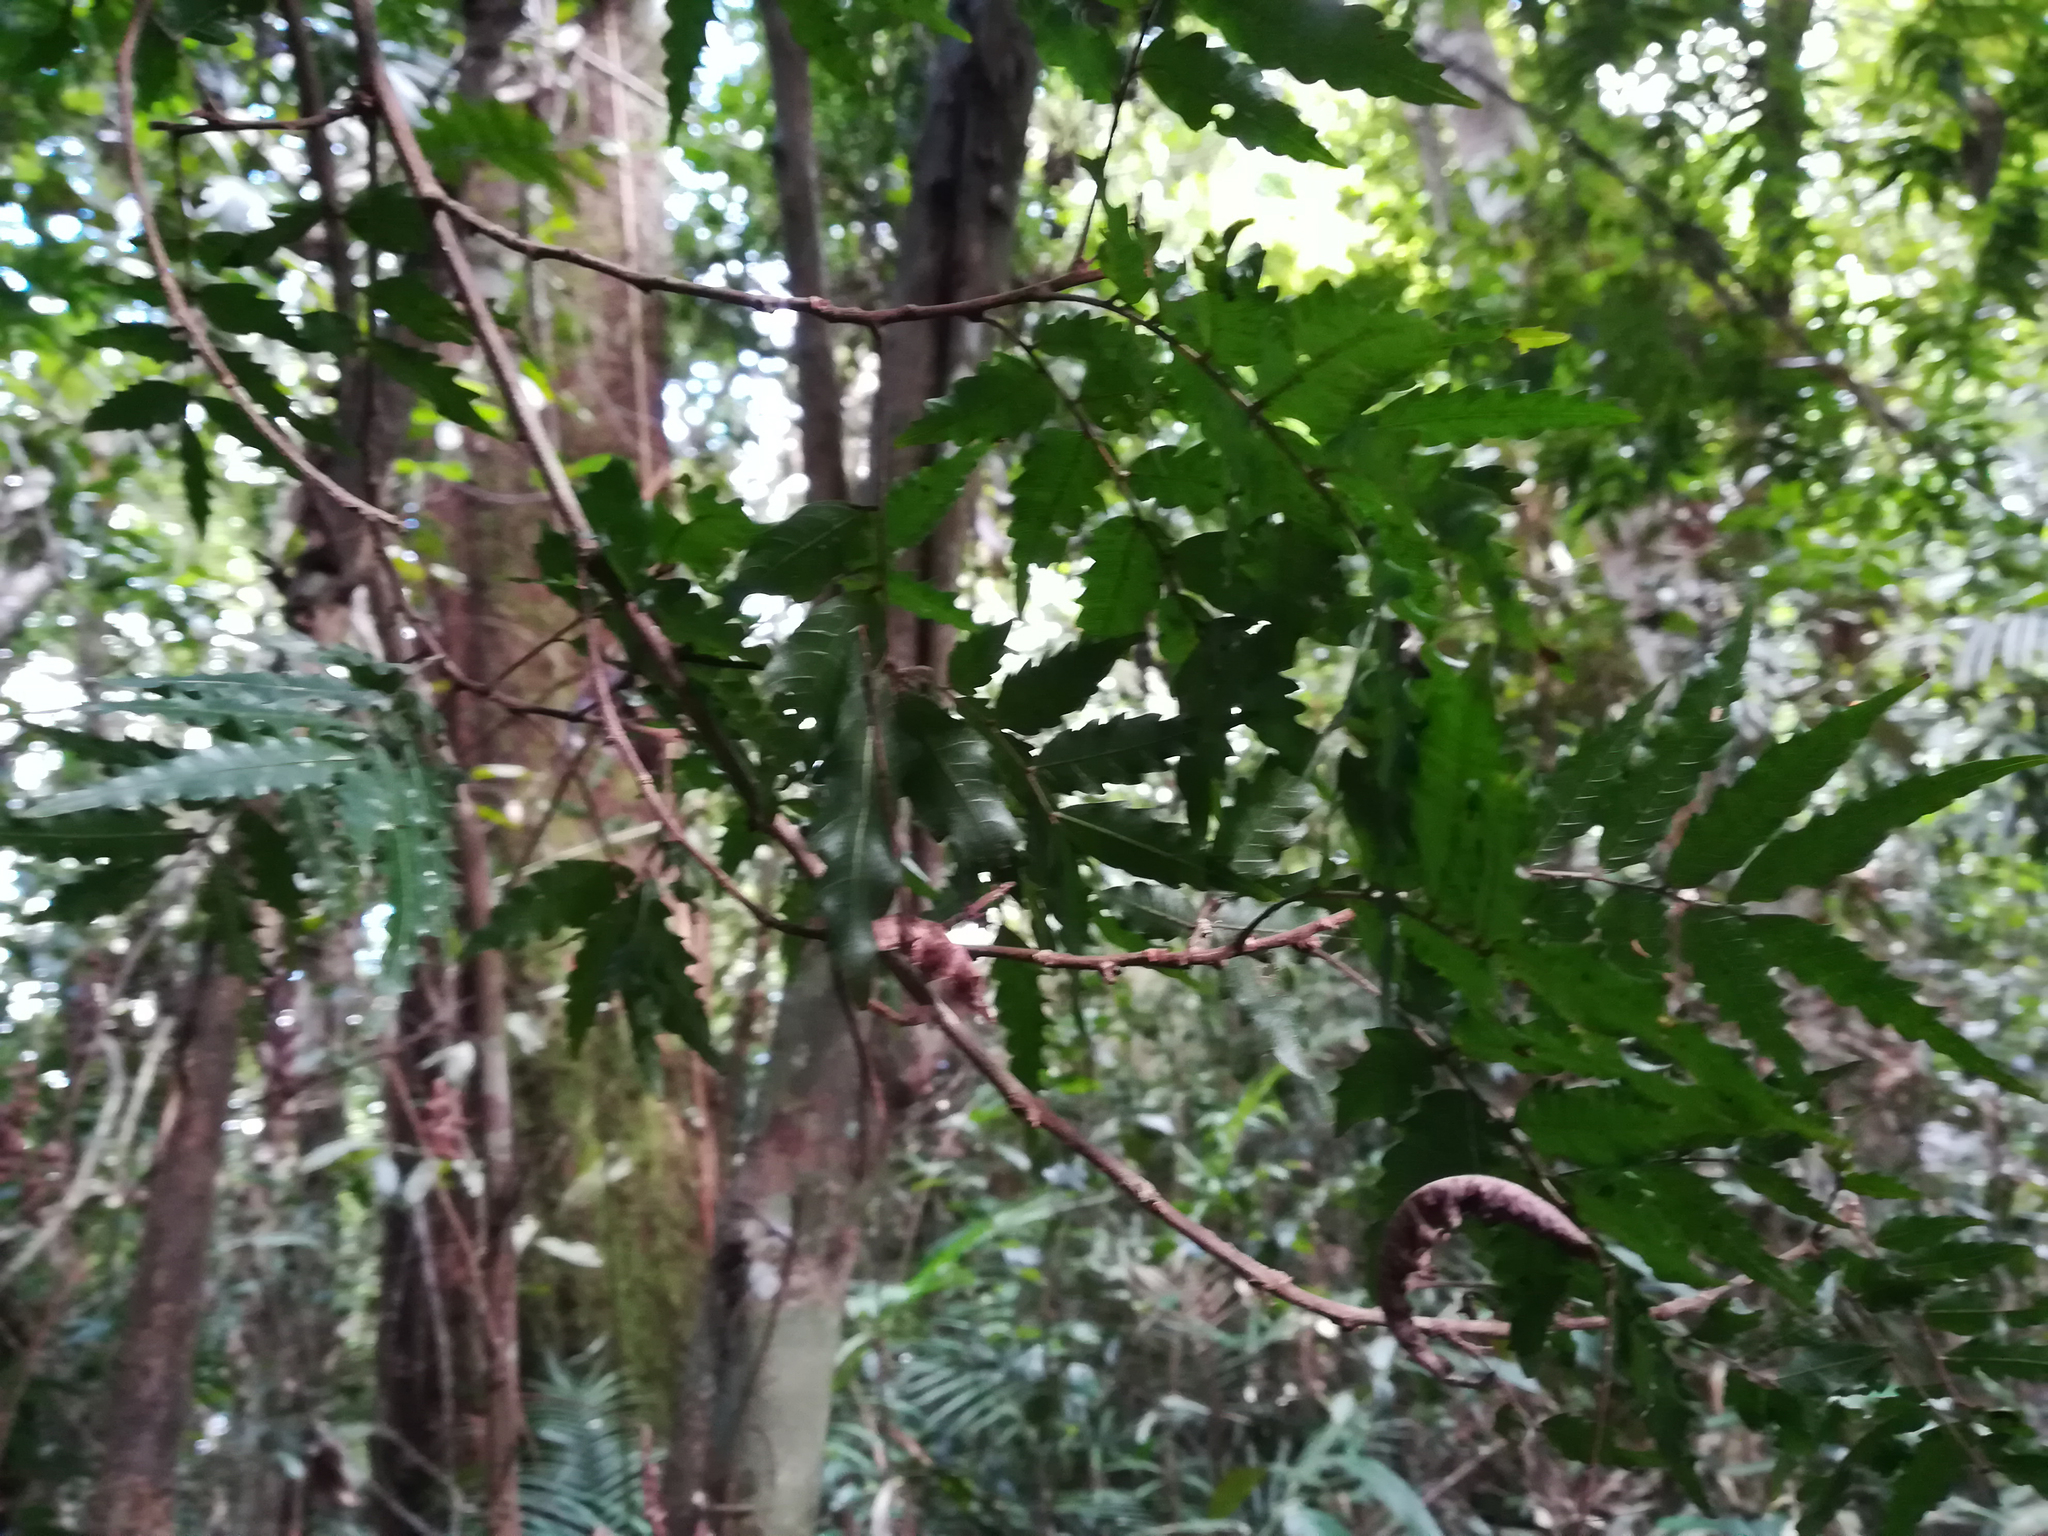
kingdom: Plantae
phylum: Tracheophyta
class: Magnoliopsida
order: Sapindales
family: Sapindaceae
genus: Synima
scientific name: Synima serrata
